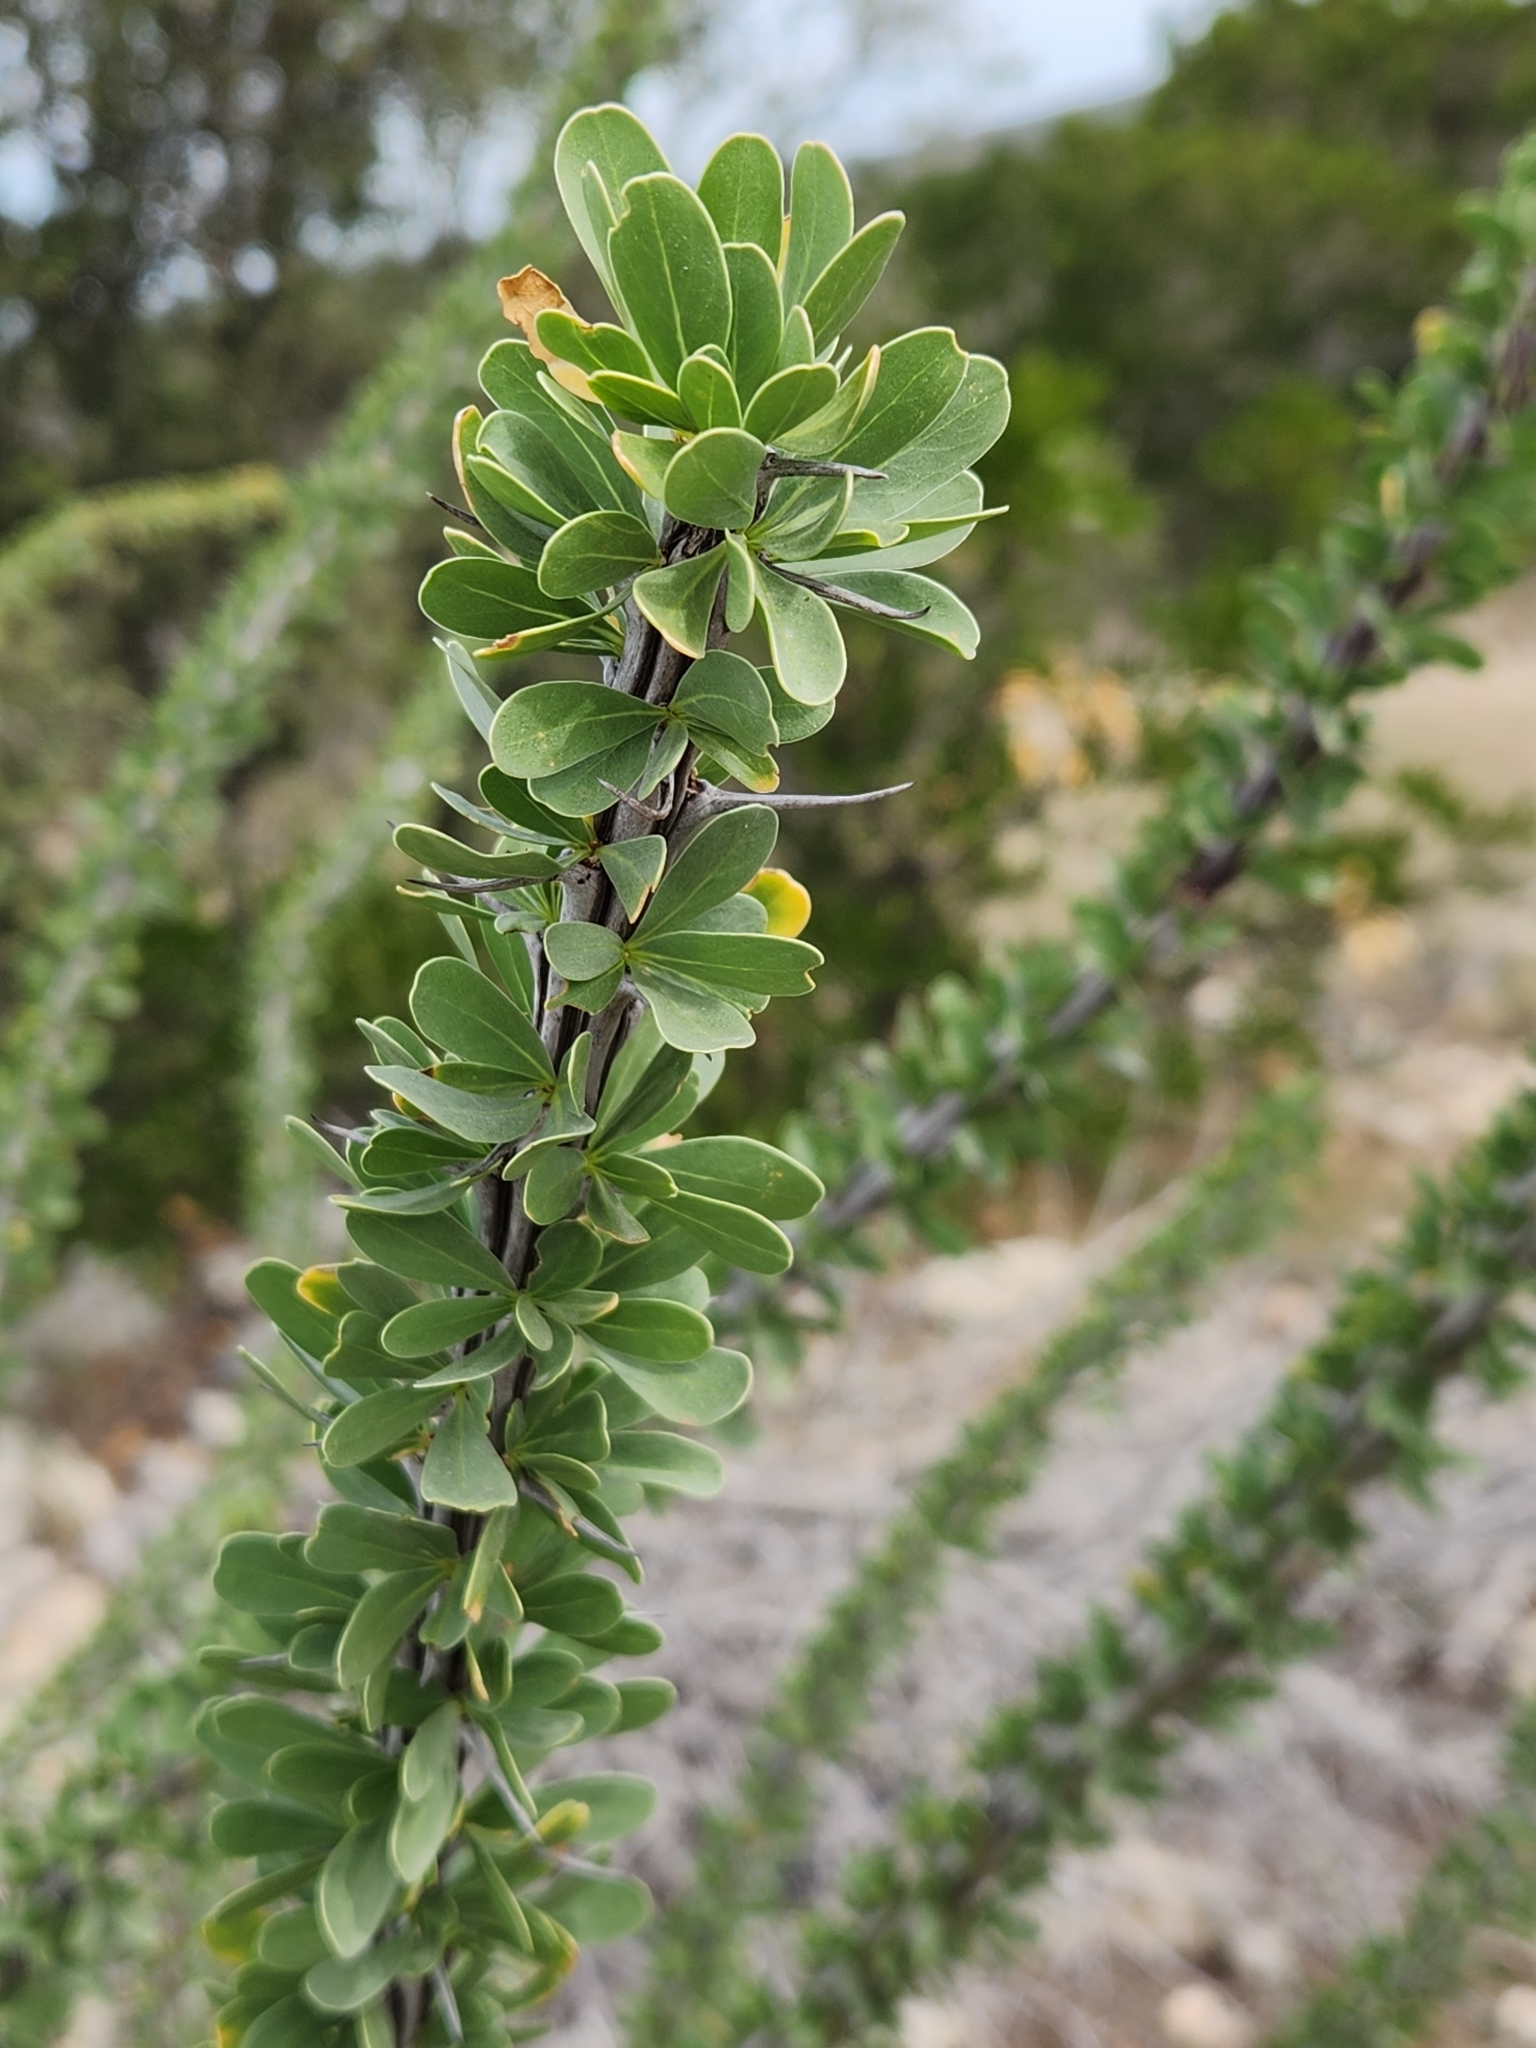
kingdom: Plantae
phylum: Tracheophyta
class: Magnoliopsida
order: Ericales
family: Fouquieriaceae
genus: Fouquieria
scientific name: Fouquieria splendens
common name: Vine-cactus
